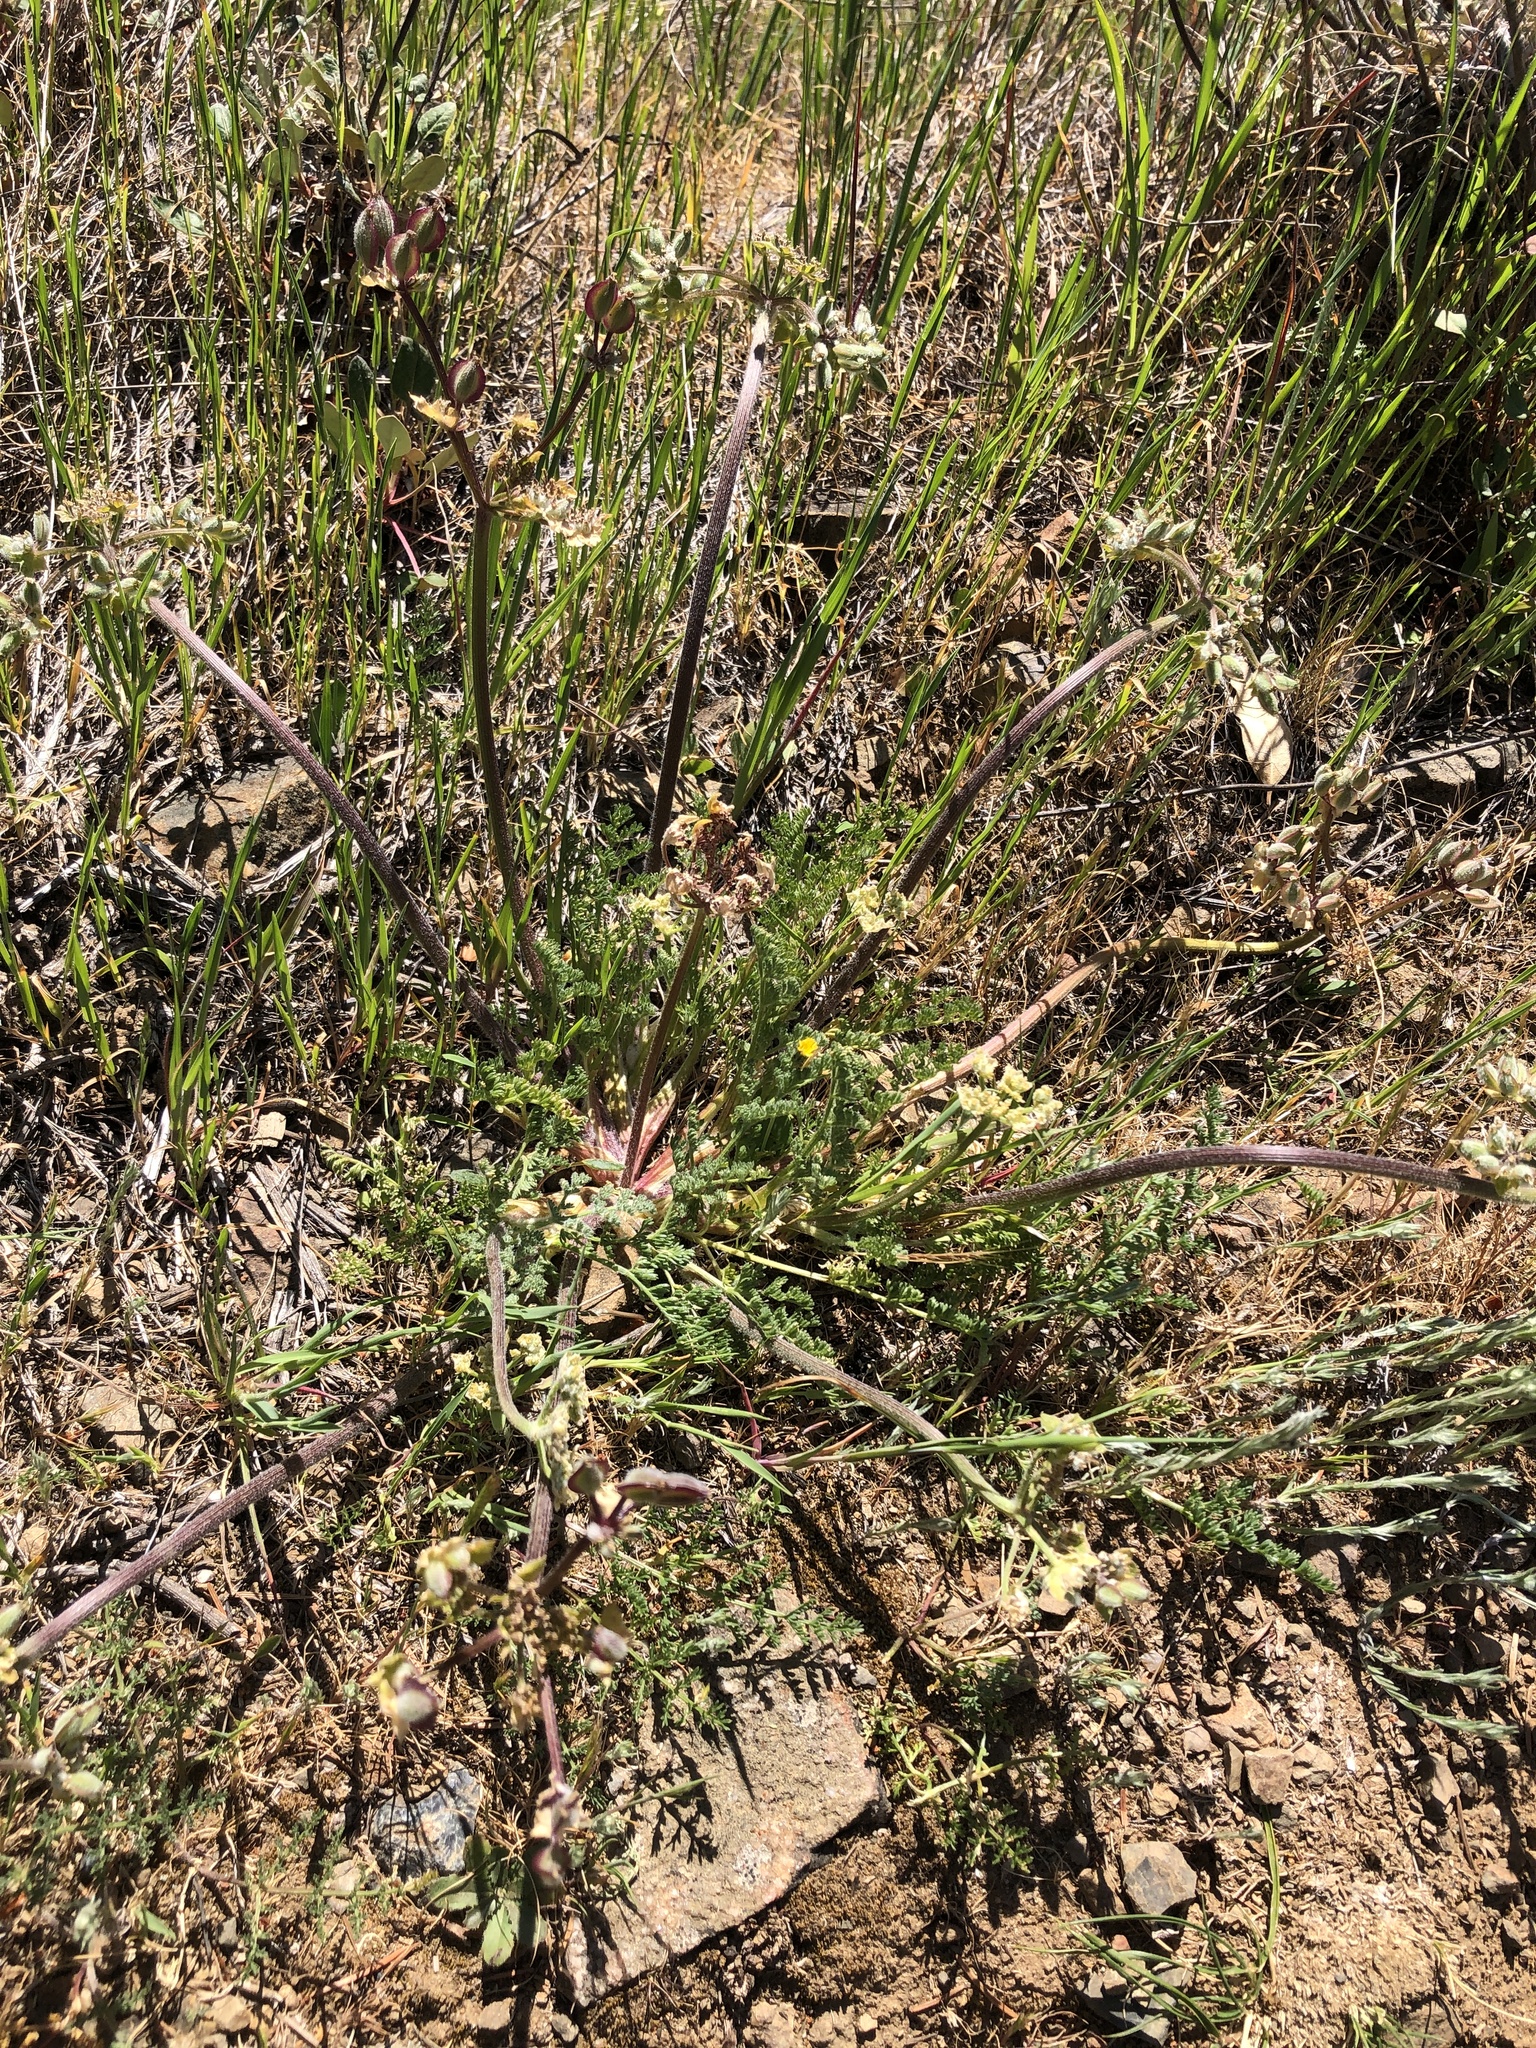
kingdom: Plantae
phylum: Tracheophyta
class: Magnoliopsida
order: Apiales
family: Apiaceae
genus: Lomatium
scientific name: Lomatium dasycarpum
